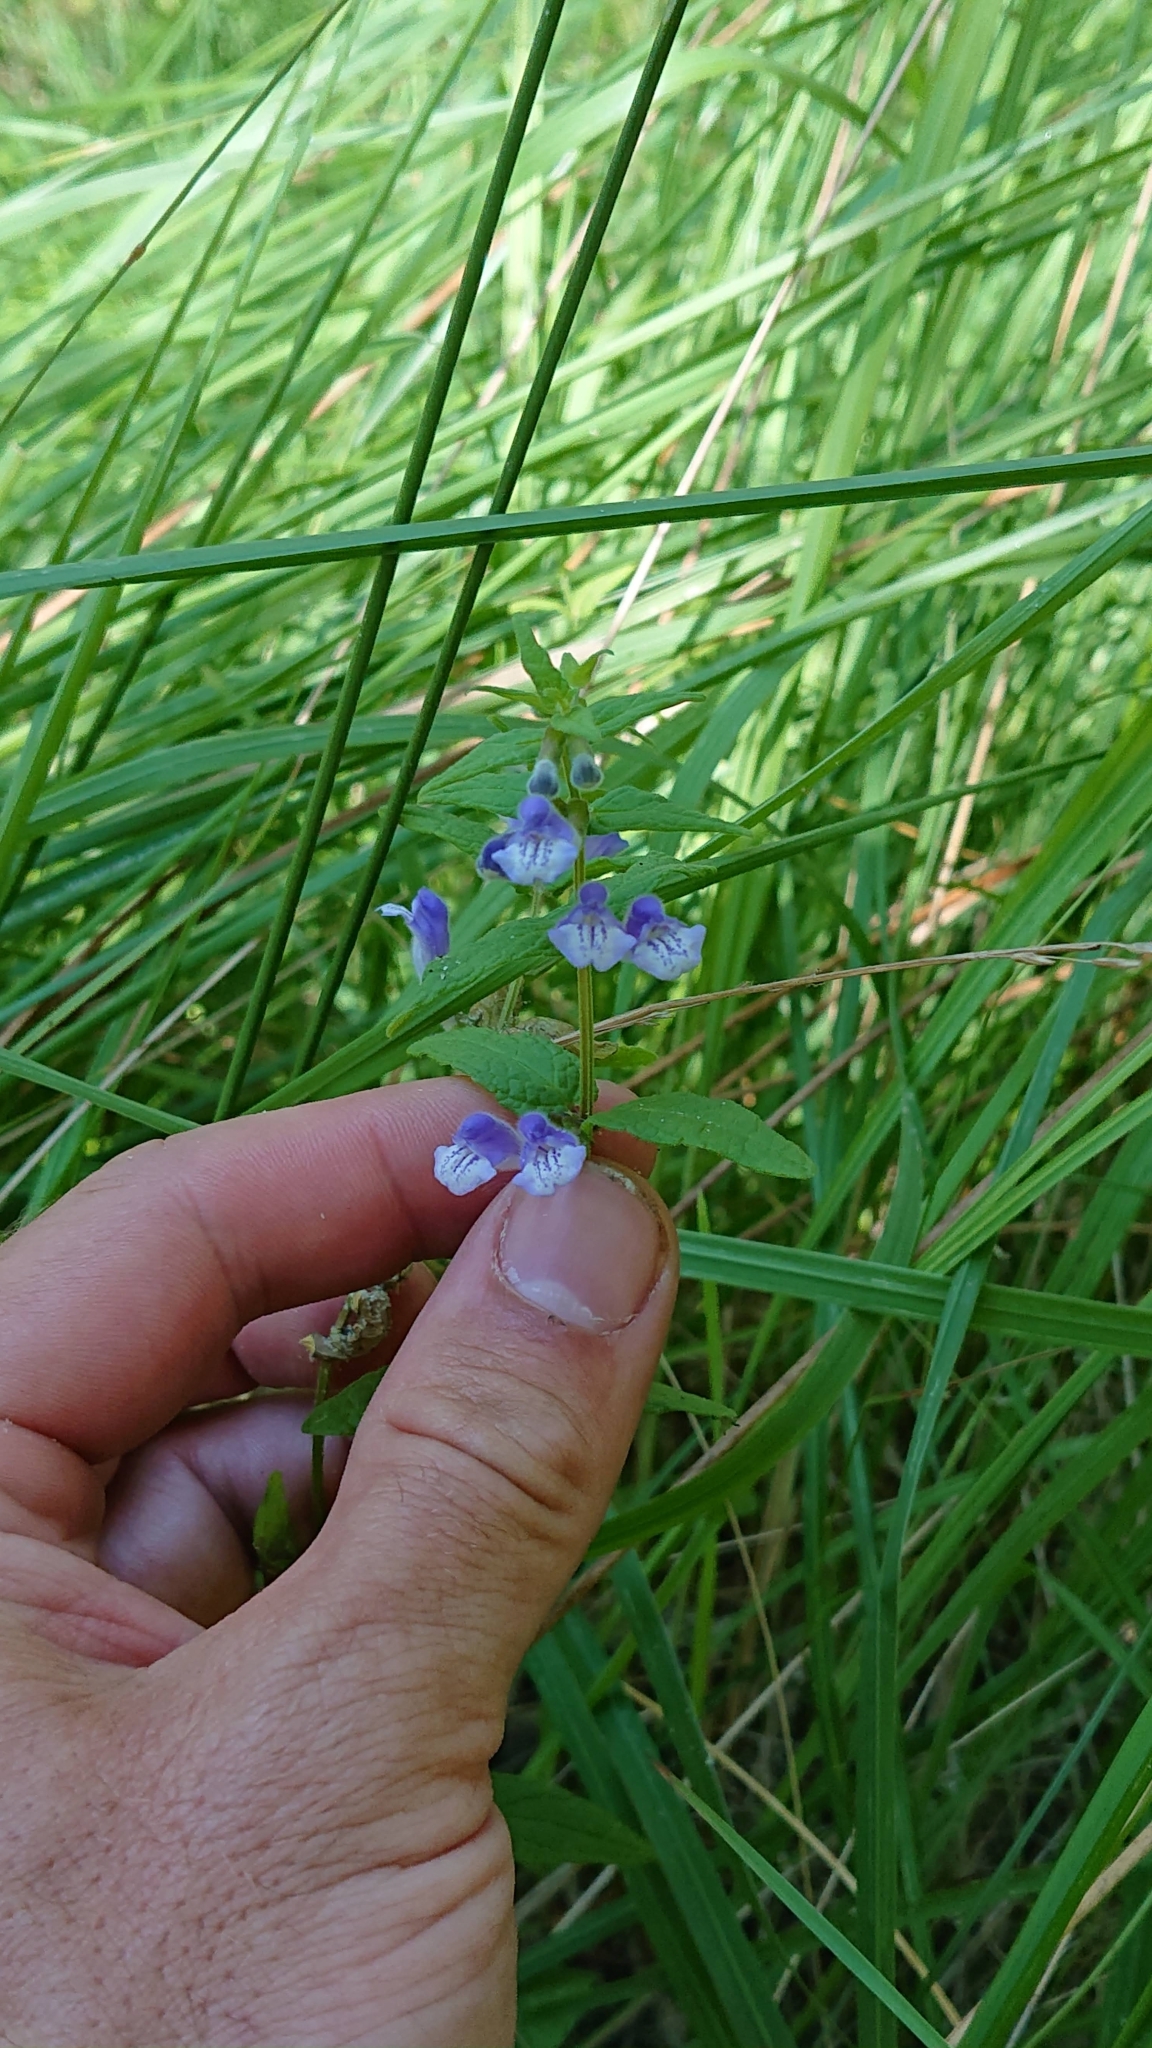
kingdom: Plantae
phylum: Tracheophyta
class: Magnoliopsida
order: Lamiales
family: Lamiaceae
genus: Scutellaria
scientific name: Scutellaria galericulata
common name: Skullcap
